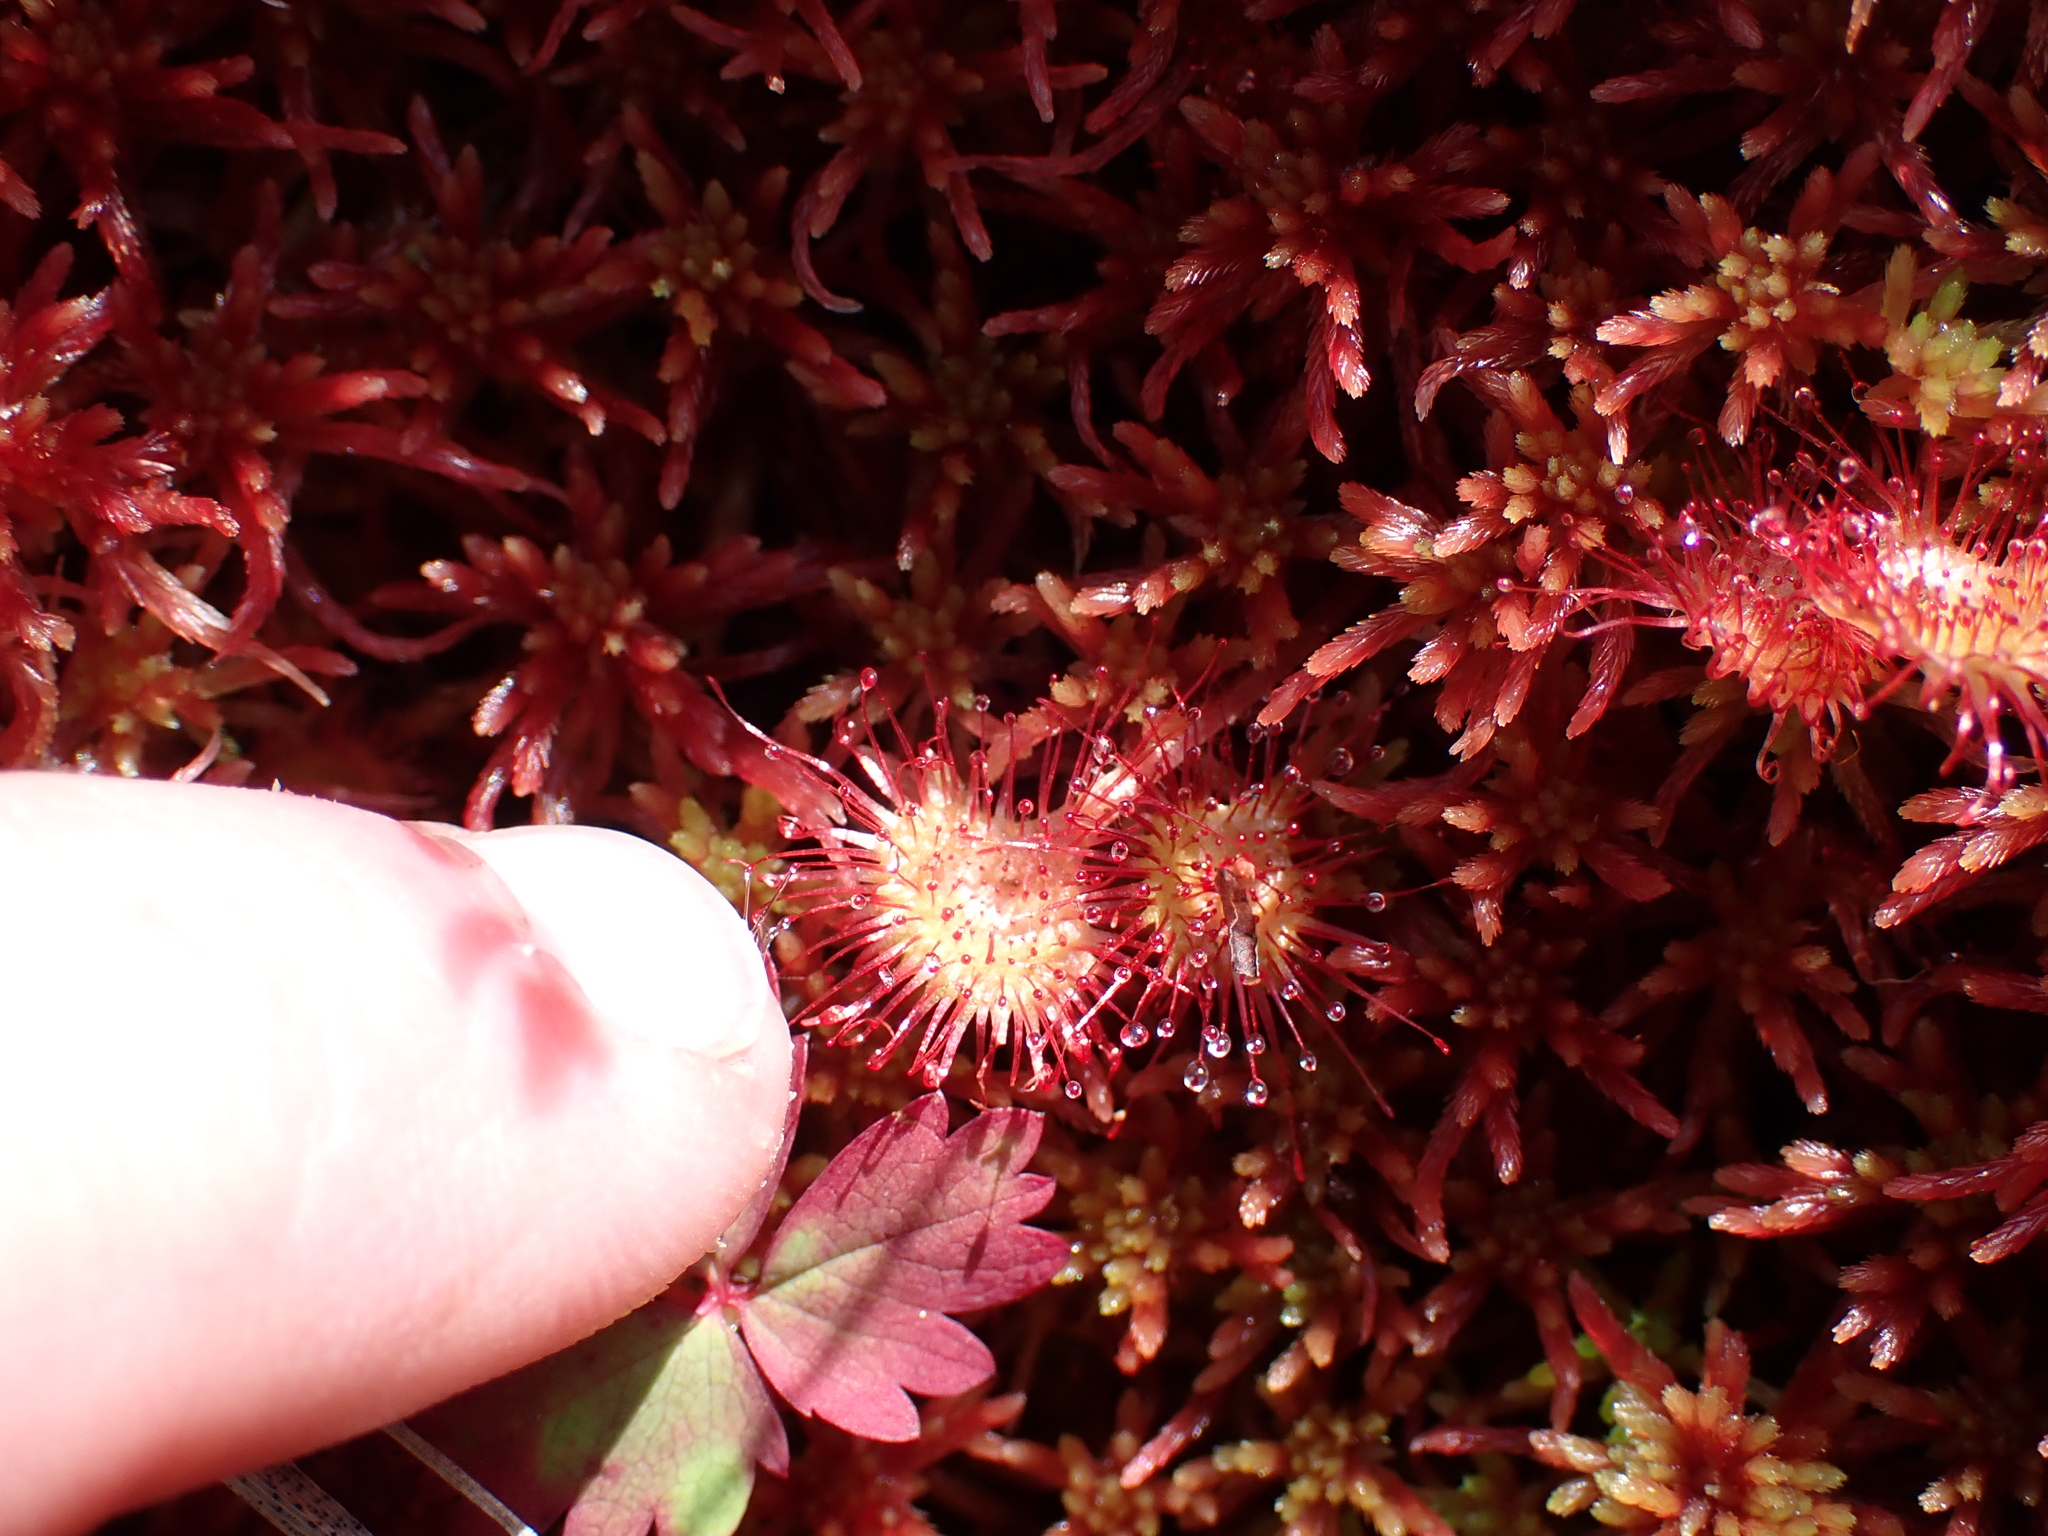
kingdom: Plantae
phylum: Tracheophyta
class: Magnoliopsida
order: Caryophyllales
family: Droseraceae
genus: Drosera
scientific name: Drosera rotundifolia
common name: Round-leaved sundew
